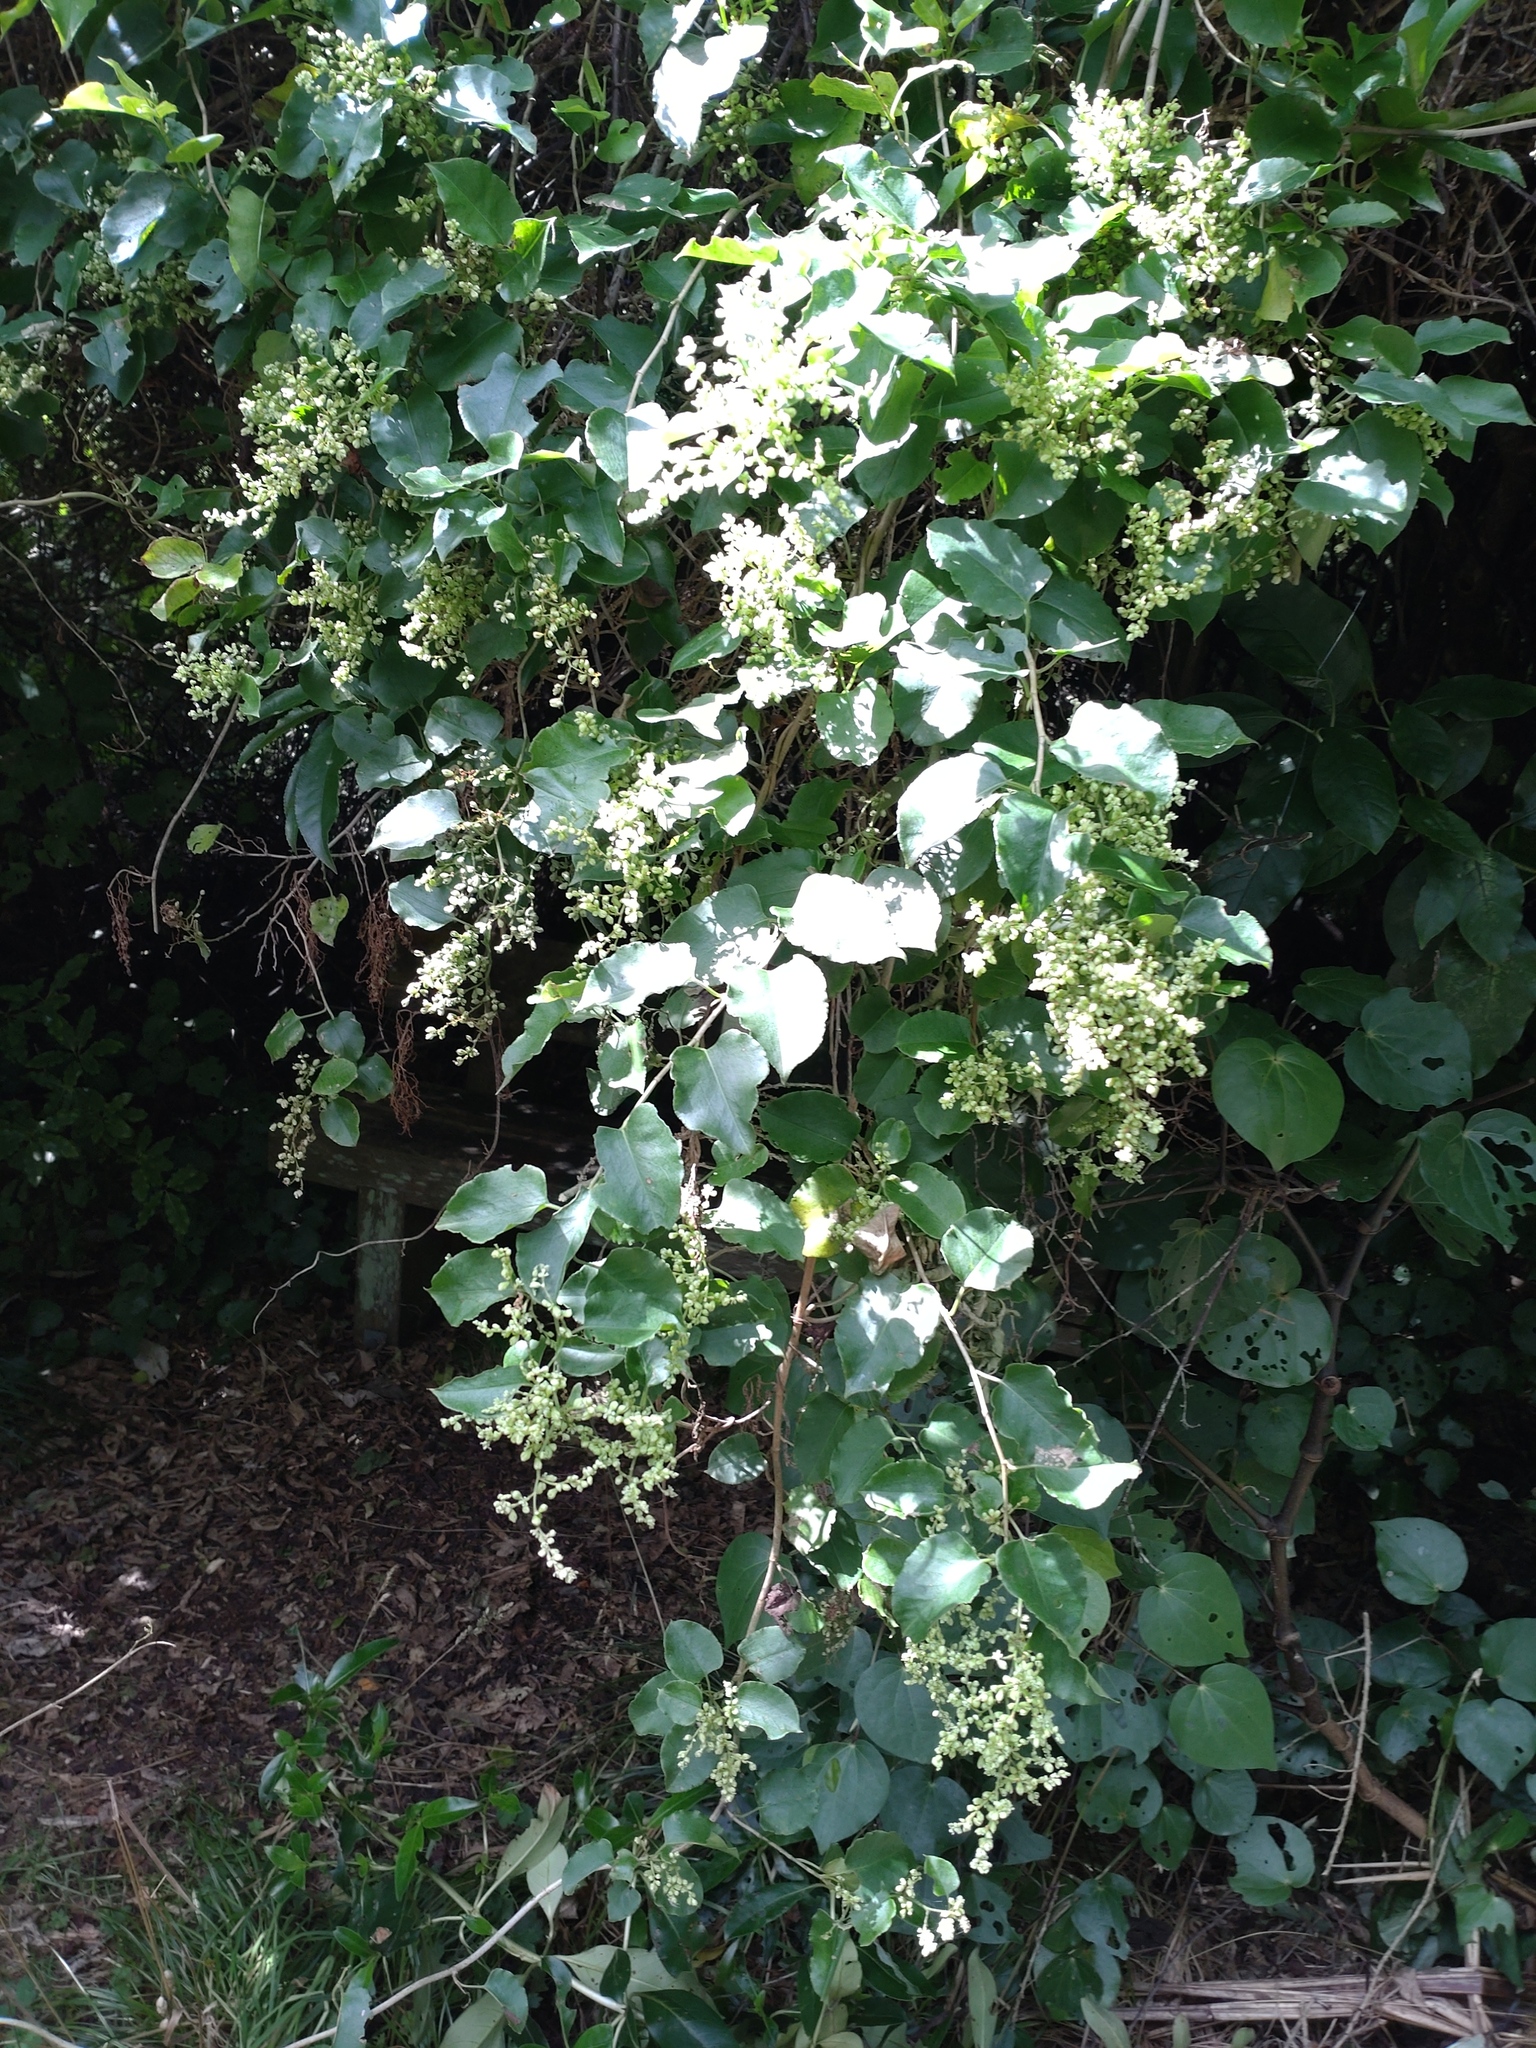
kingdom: Plantae
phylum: Tracheophyta
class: Magnoliopsida
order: Caryophyllales
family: Polygonaceae
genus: Muehlenbeckia
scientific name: Muehlenbeckia australis
